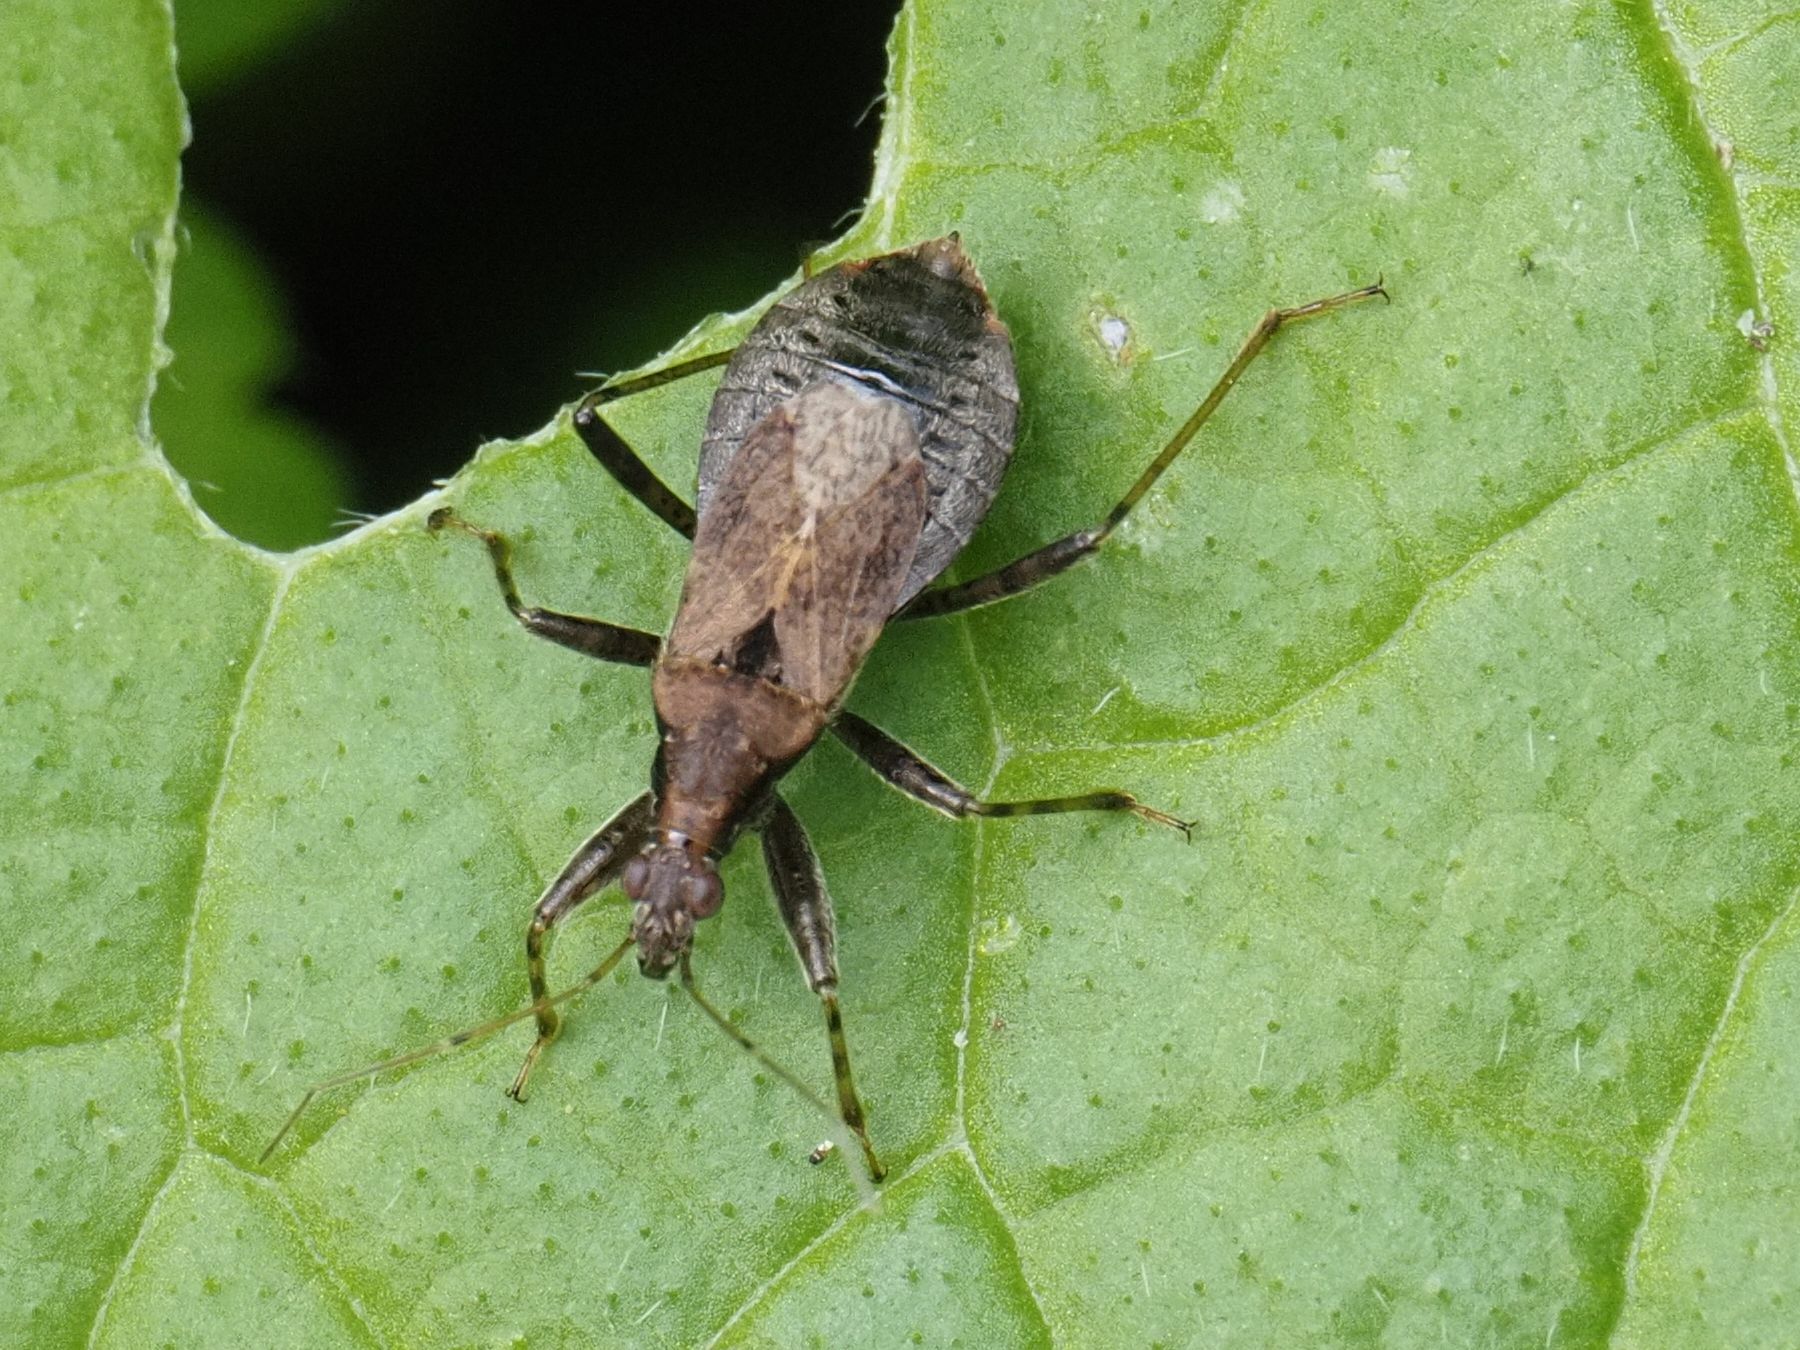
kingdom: Animalia
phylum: Arthropoda
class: Insecta
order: Hemiptera
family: Nabidae
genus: Himacerus
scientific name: Himacerus mirmicoides
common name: Ant damsel bug
